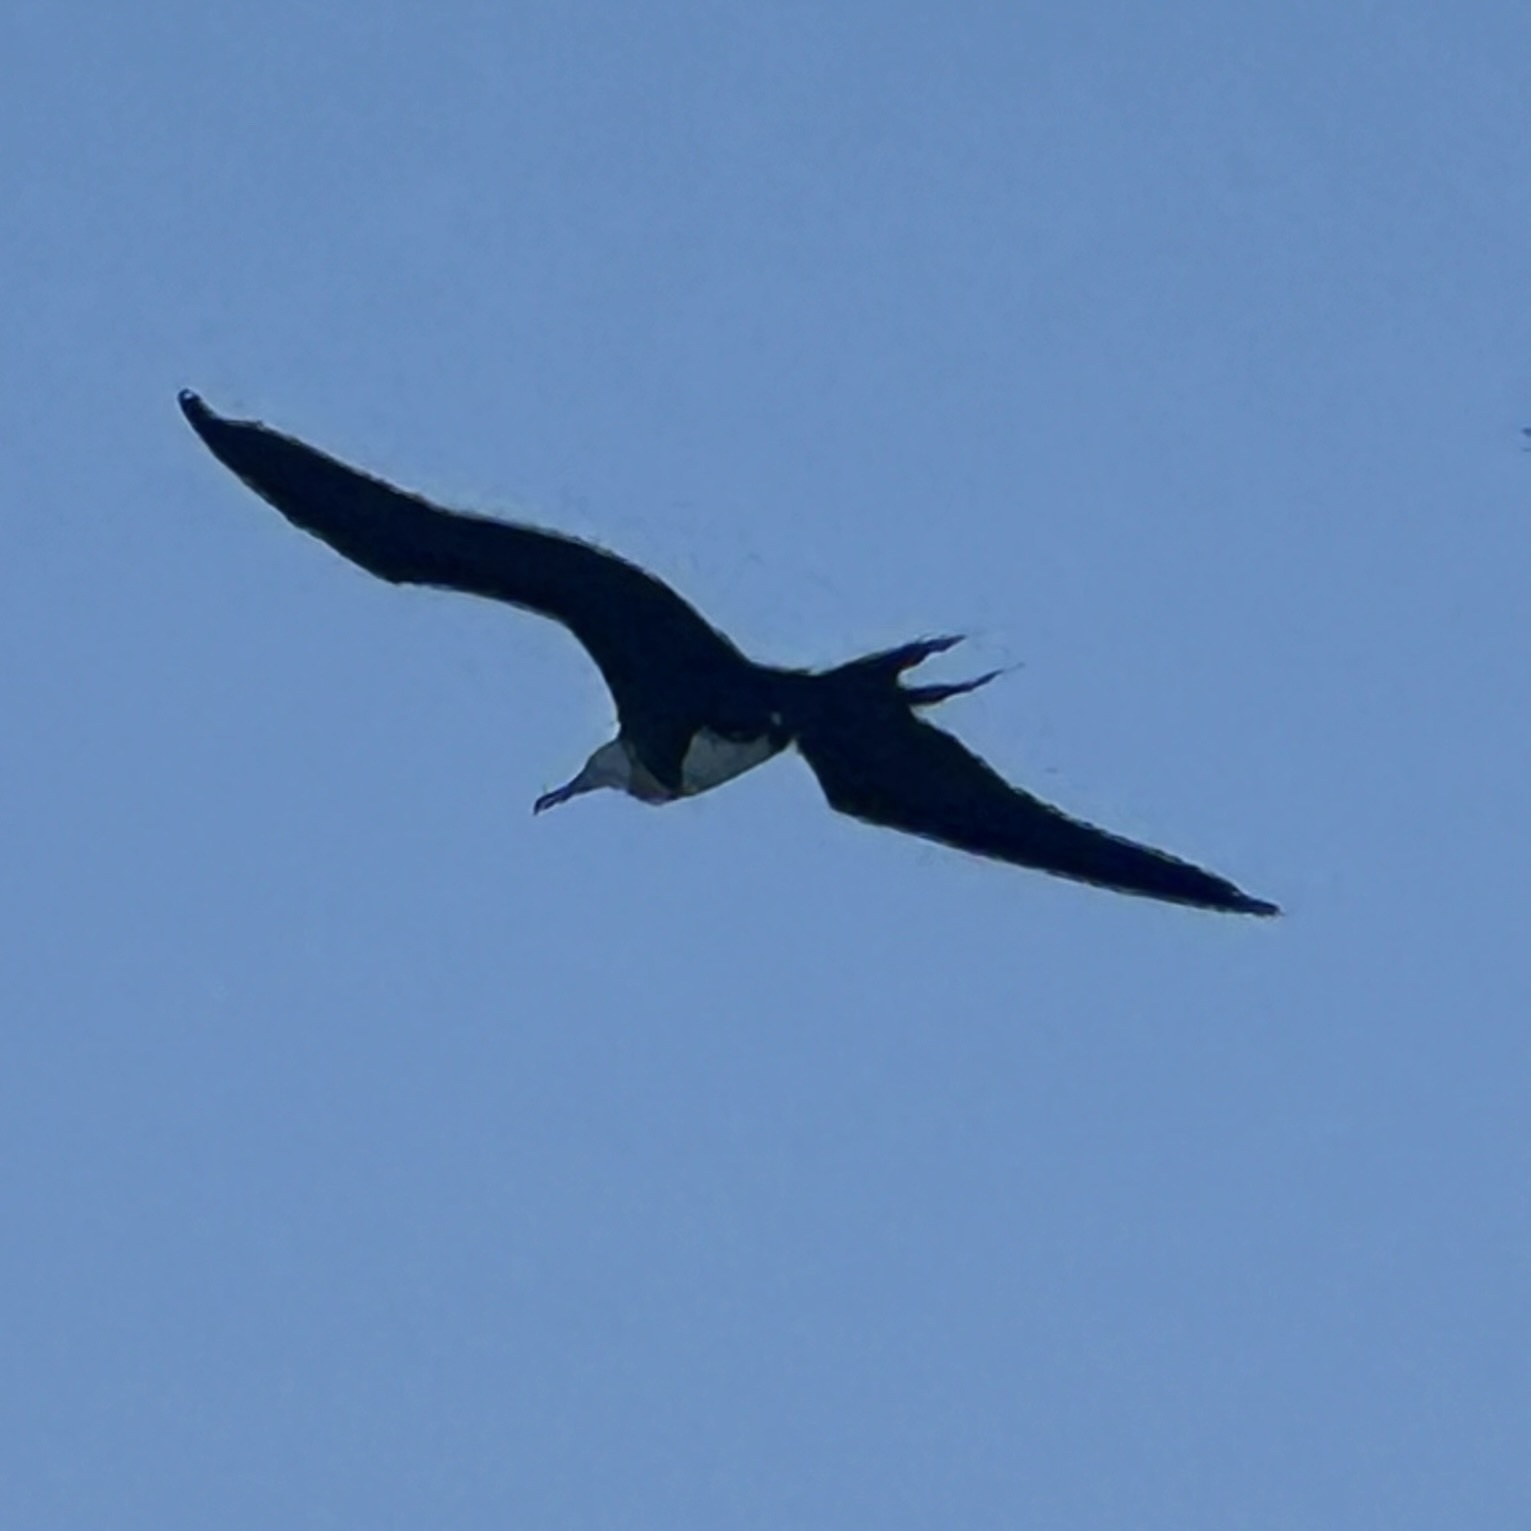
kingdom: Animalia
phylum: Chordata
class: Aves
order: Suliformes
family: Fregatidae
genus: Fregata
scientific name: Fregata magnificens
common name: Magnificent frigatebird
